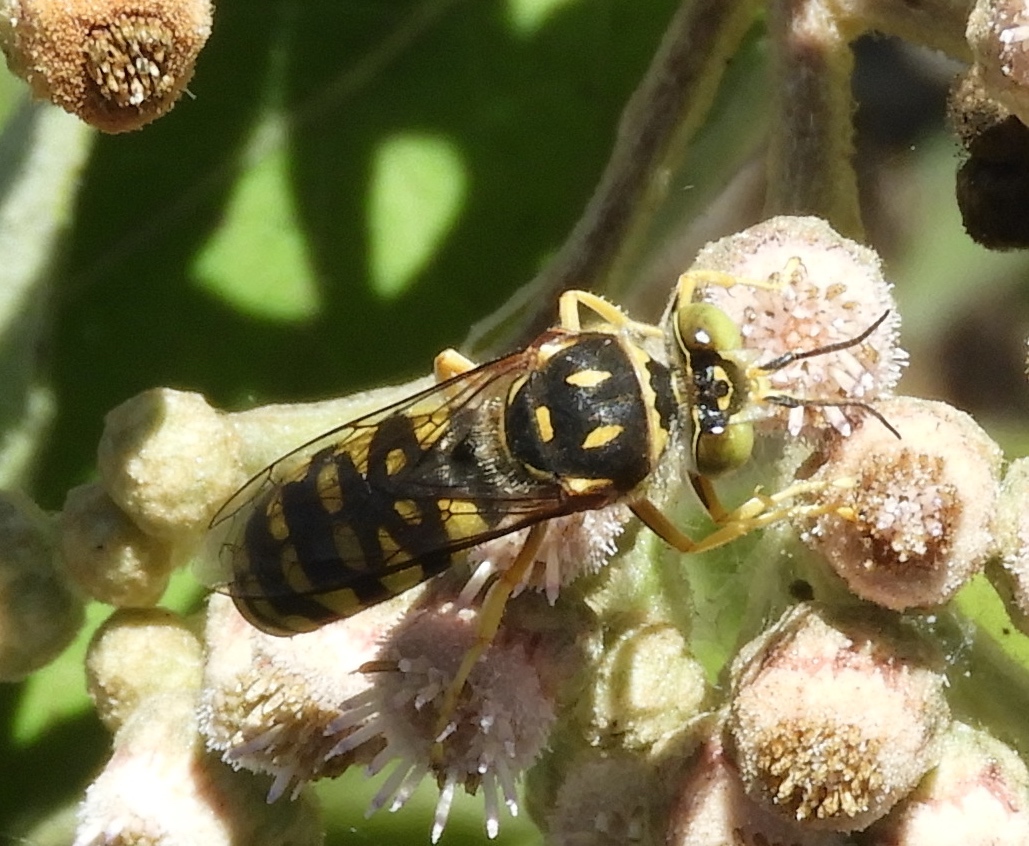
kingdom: Animalia
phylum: Arthropoda
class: Insecta
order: Hymenoptera
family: Crabronidae
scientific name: Crabronidae
